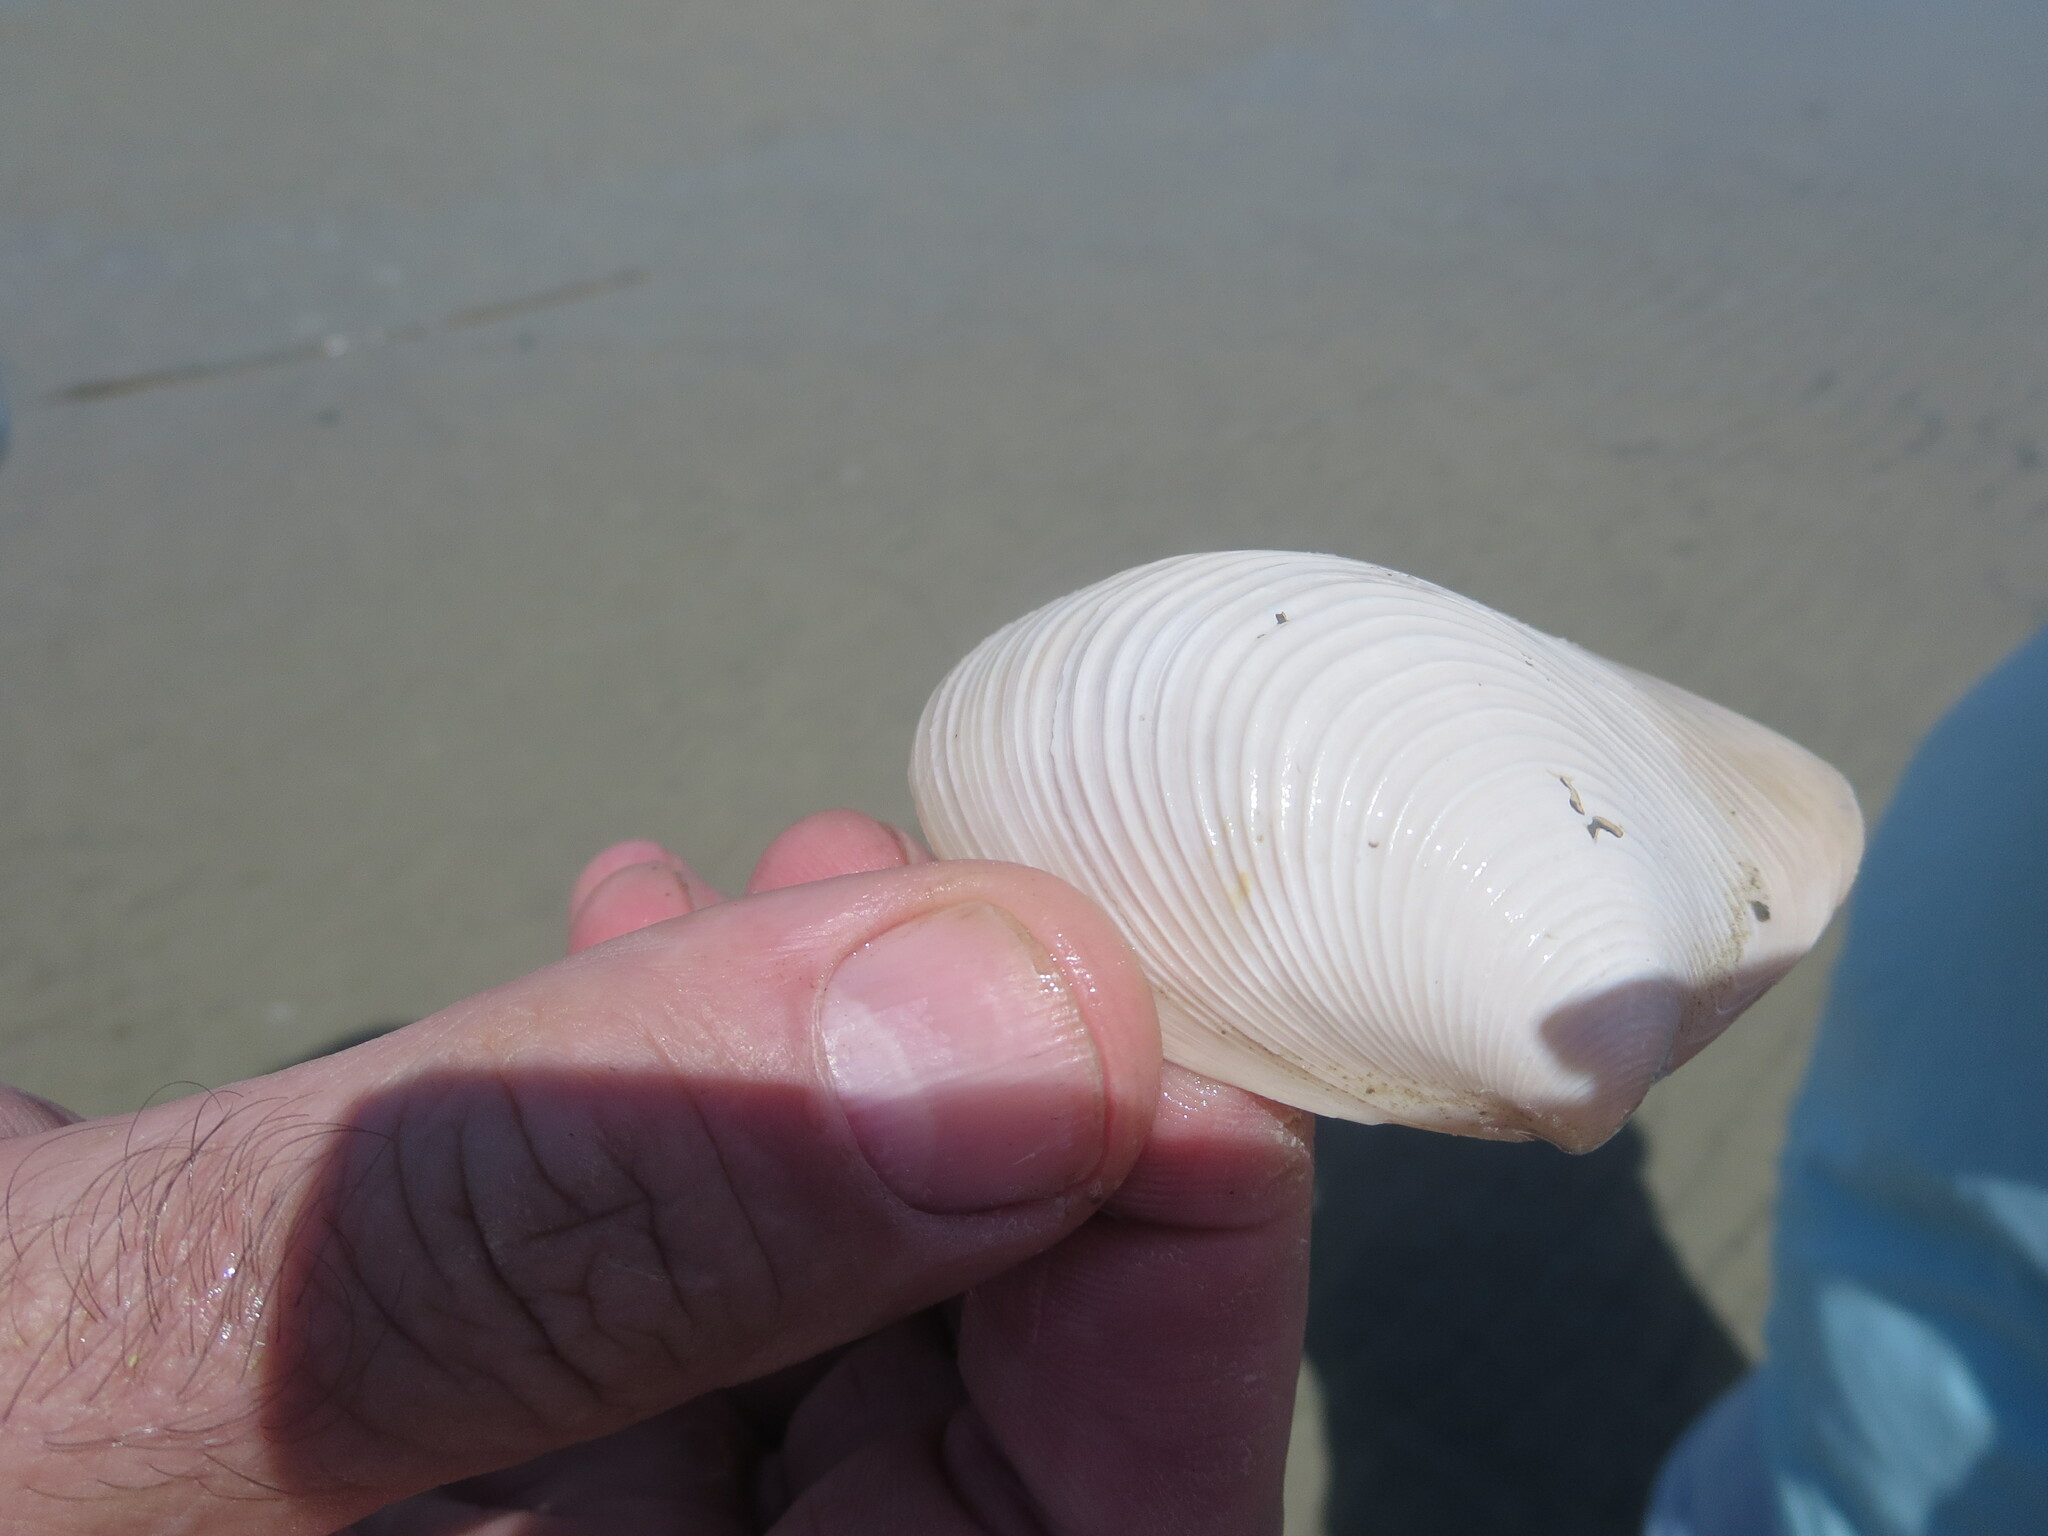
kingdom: Animalia
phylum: Mollusca
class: Bivalvia
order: Venerida
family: Anatinellidae
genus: Raeta
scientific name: Raeta plicatella
